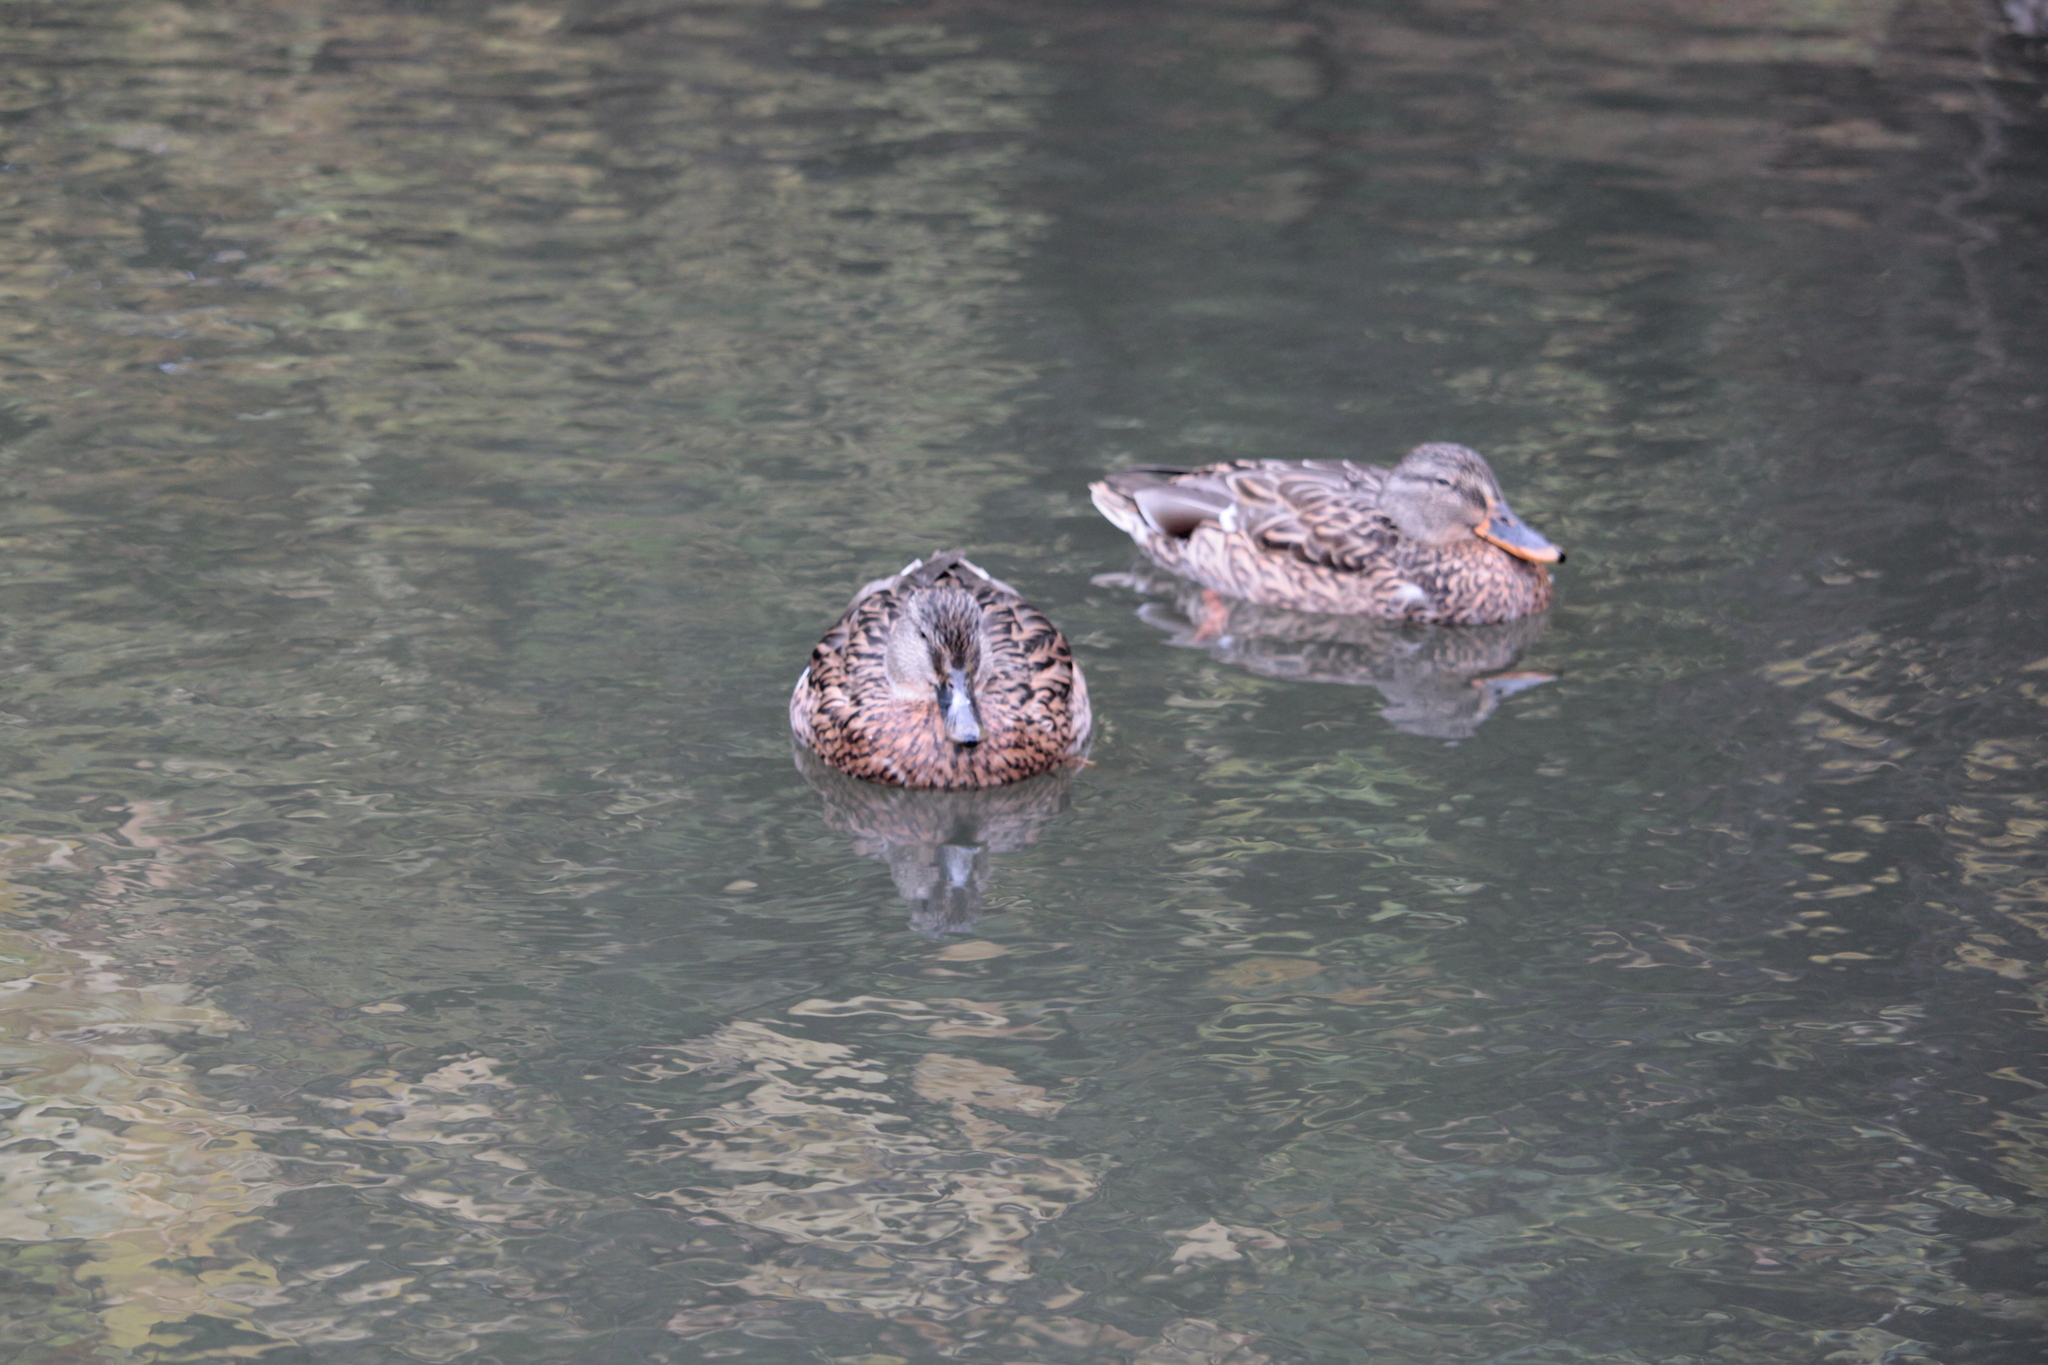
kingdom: Animalia
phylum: Chordata
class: Aves
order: Anseriformes
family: Anatidae
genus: Anas
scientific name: Anas platyrhynchos
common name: Mallard
